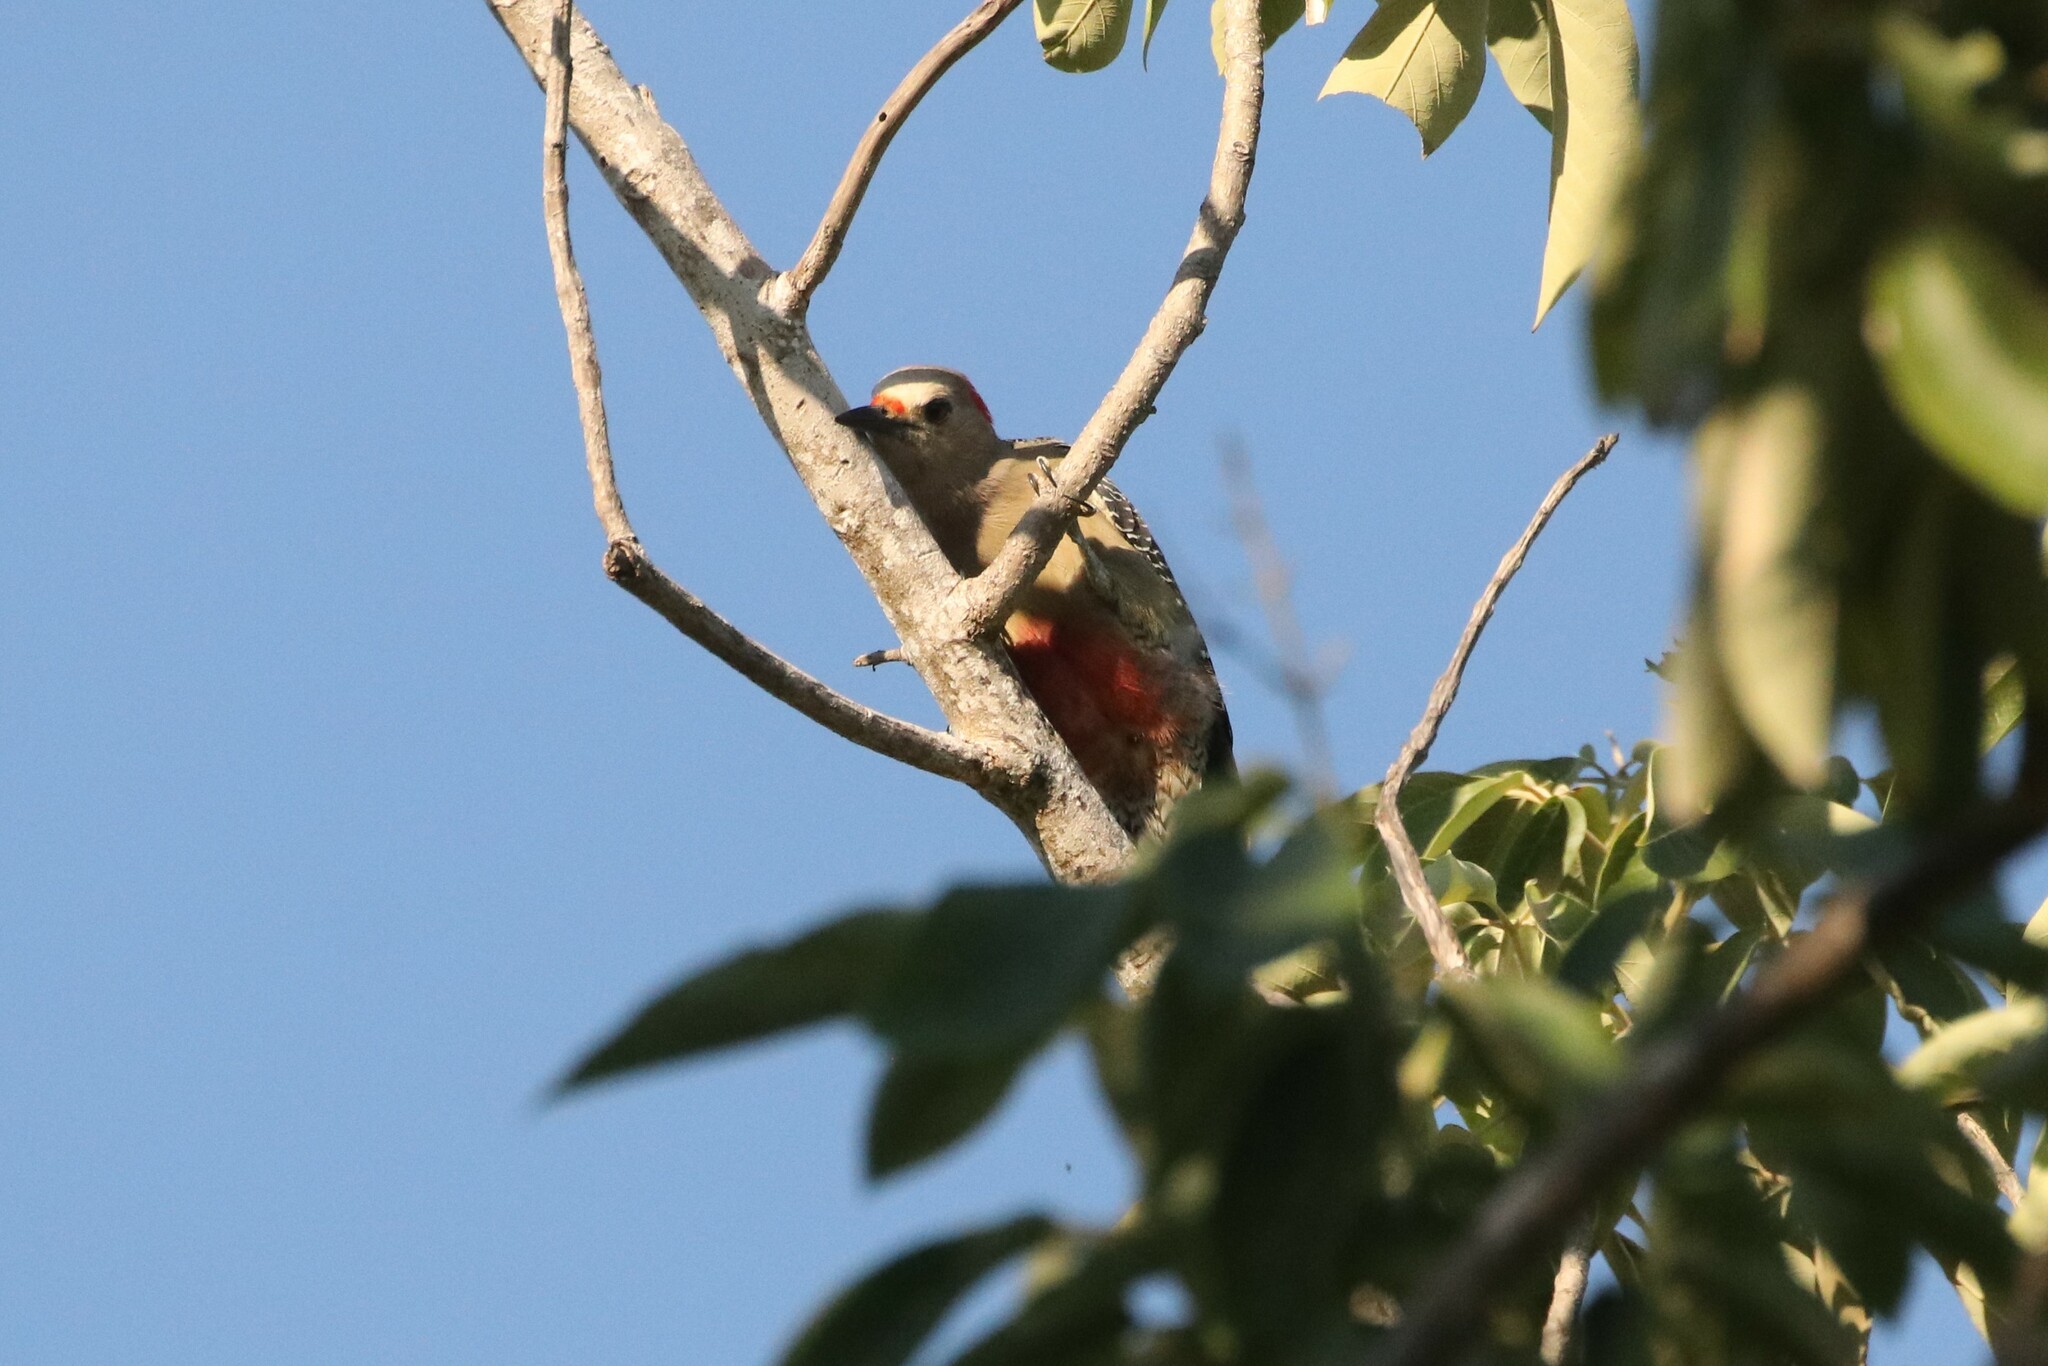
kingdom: Animalia
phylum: Chordata
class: Aves
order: Piciformes
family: Picidae
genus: Melanerpes
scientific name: Melanerpes aurifrons
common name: Golden-fronted woodpecker
